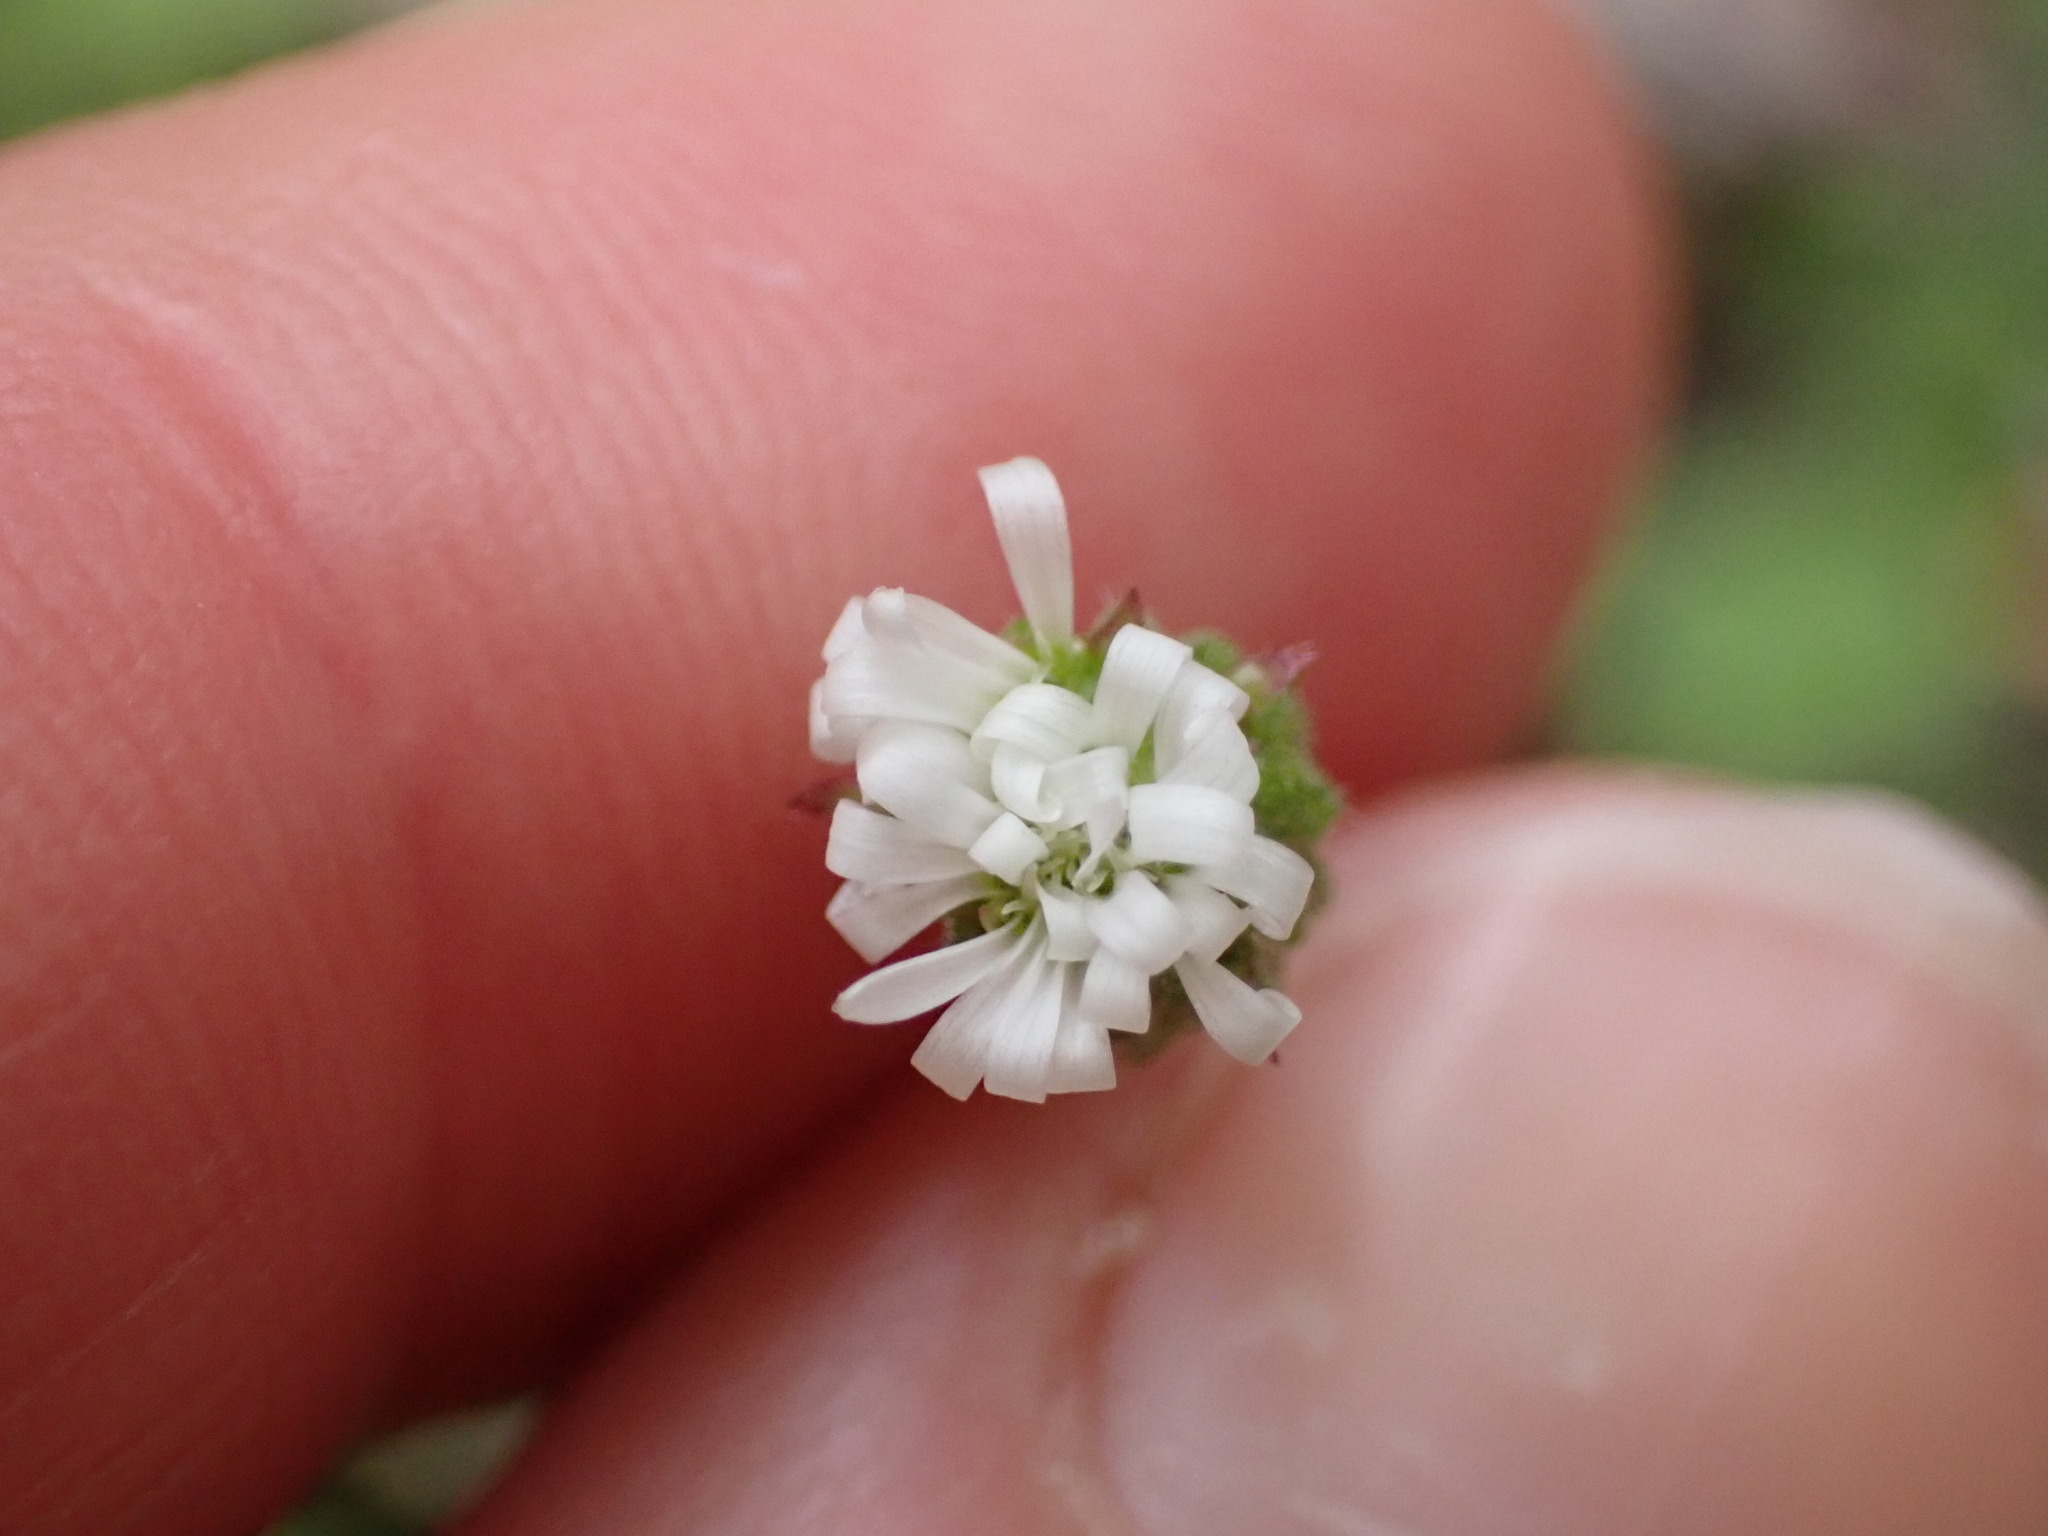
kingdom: Plantae
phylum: Tracheophyta
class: Magnoliopsida
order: Asterales
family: Asteraceae
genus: Lagenophora
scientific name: Lagenophora pinnatifida
